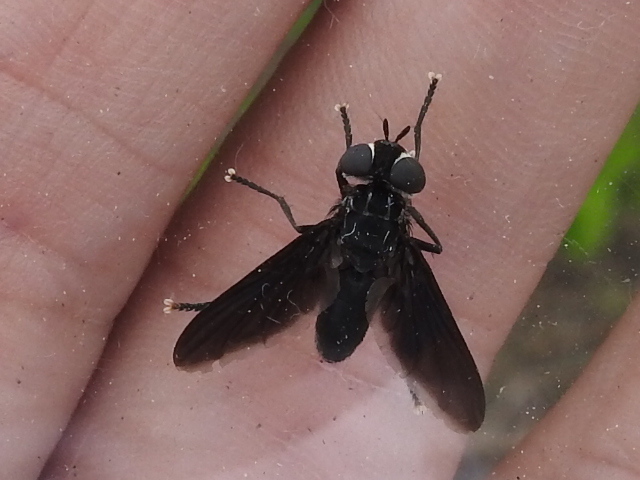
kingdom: Animalia
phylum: Arthropoda
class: Insecta
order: Diptera
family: Tachinidae
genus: Trichopoda
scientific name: Trichopoda lanipes
